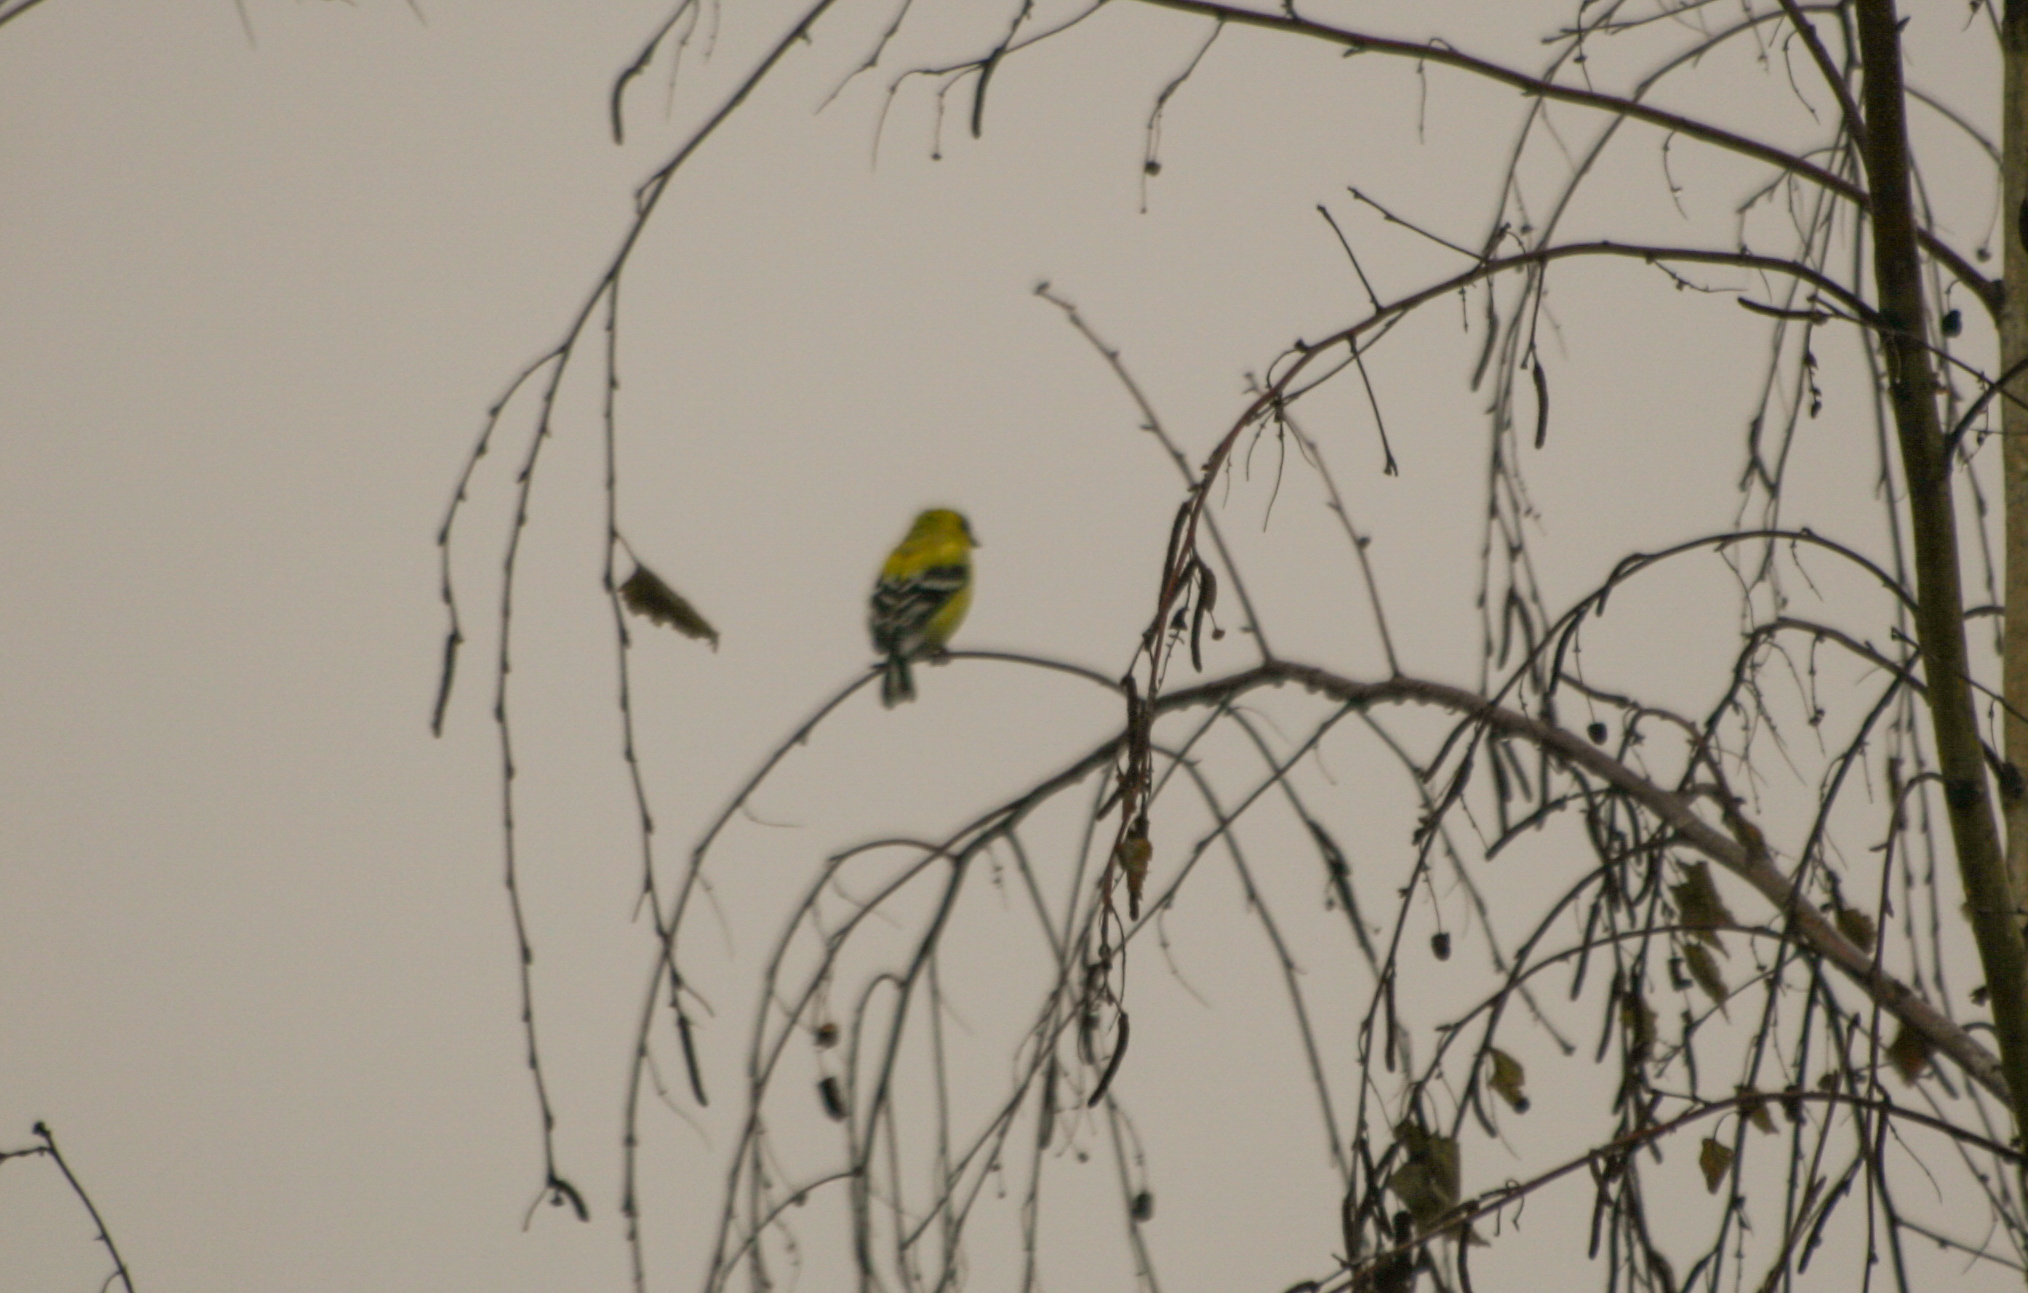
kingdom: Animalia
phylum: Chordata
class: Aves
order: Passeriformes
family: Fringillidae
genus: Spinus
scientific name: Spinus tristis
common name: American goldfinch
